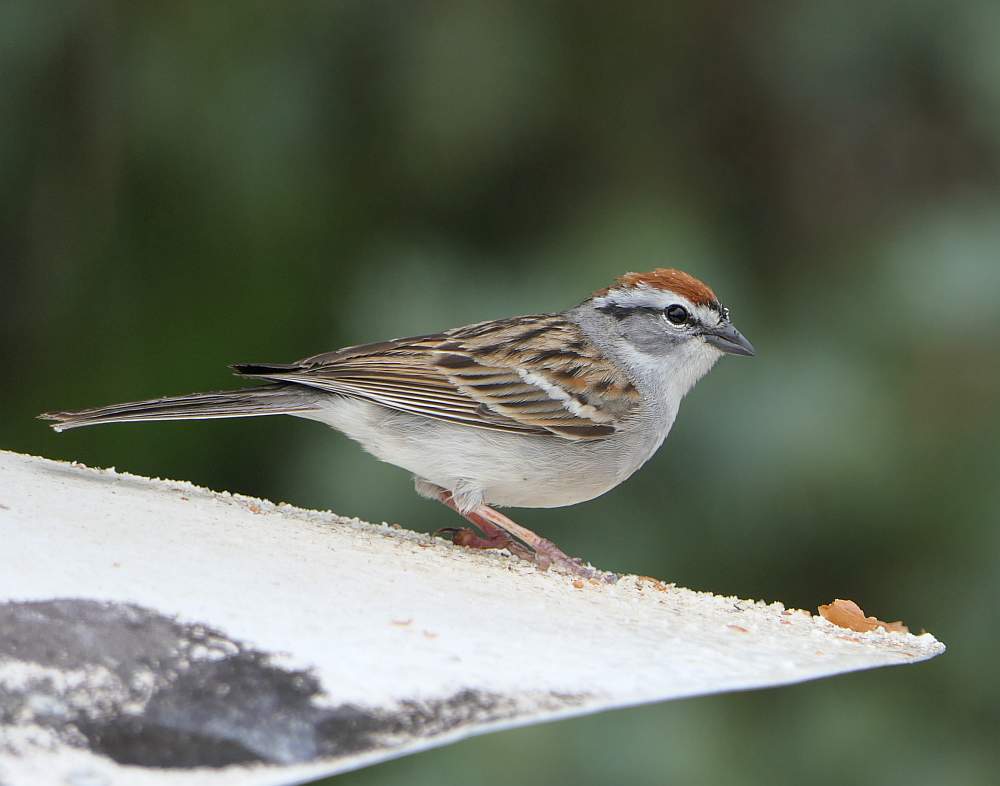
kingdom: Animalia
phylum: Chordata
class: Aves
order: Passeriformes
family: Passerellidae
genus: Spizella
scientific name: Spizella passerina
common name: Chipping sparrow
